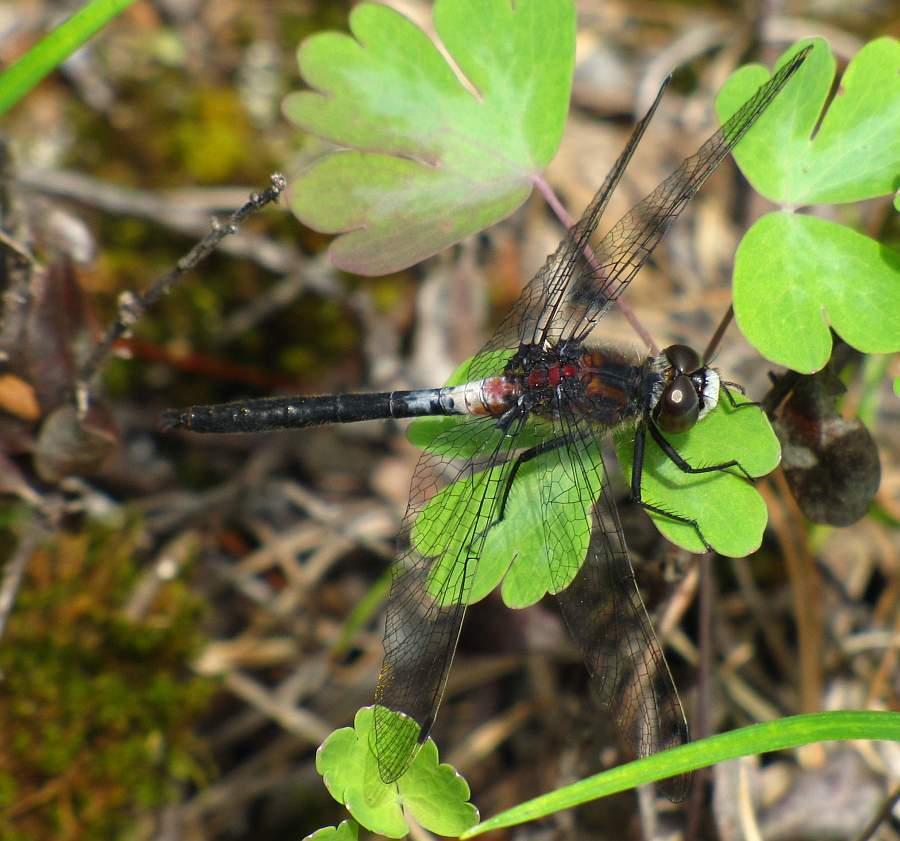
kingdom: Animalia
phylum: Arthropoda
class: Insecta
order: Odonata
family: Libellulidae
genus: Leucorrhinia
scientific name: Leucorrhinia proxima
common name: Belted whiteface
